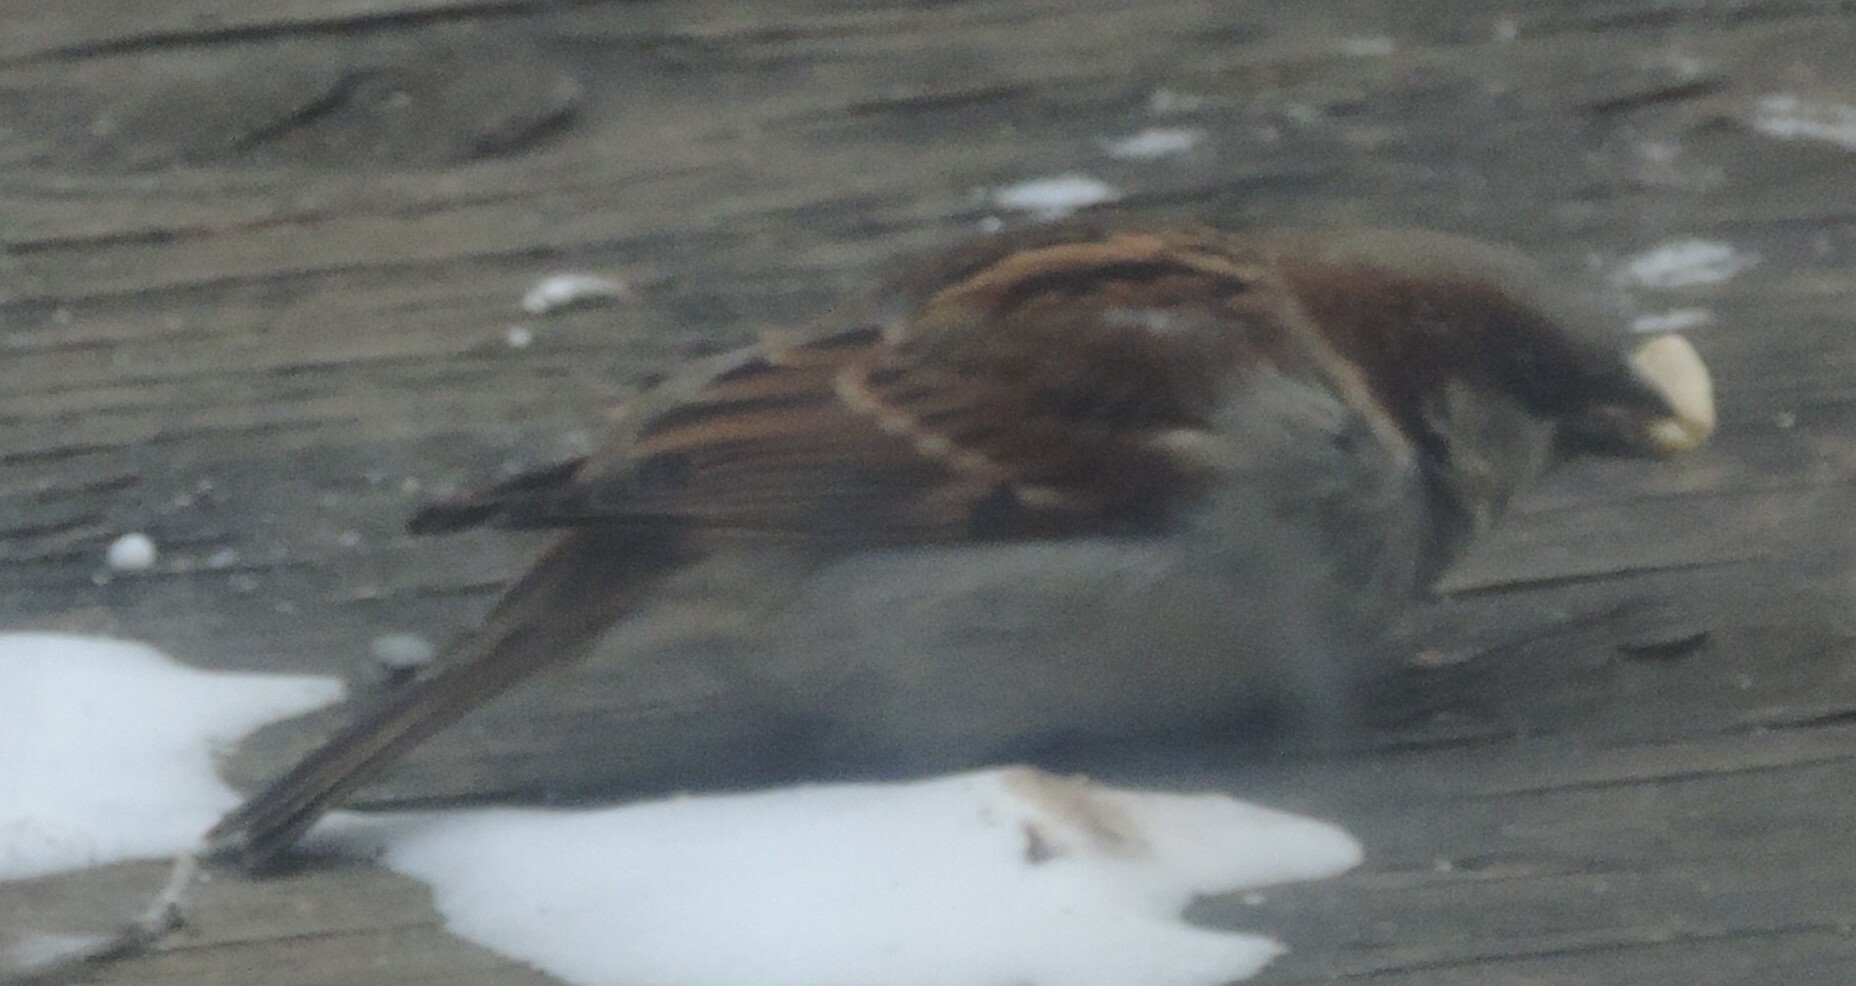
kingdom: Animalia
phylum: Chordata
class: Aves
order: Passeriformes
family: Passeridae
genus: Passer
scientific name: Passer domesticus
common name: House sparrow
